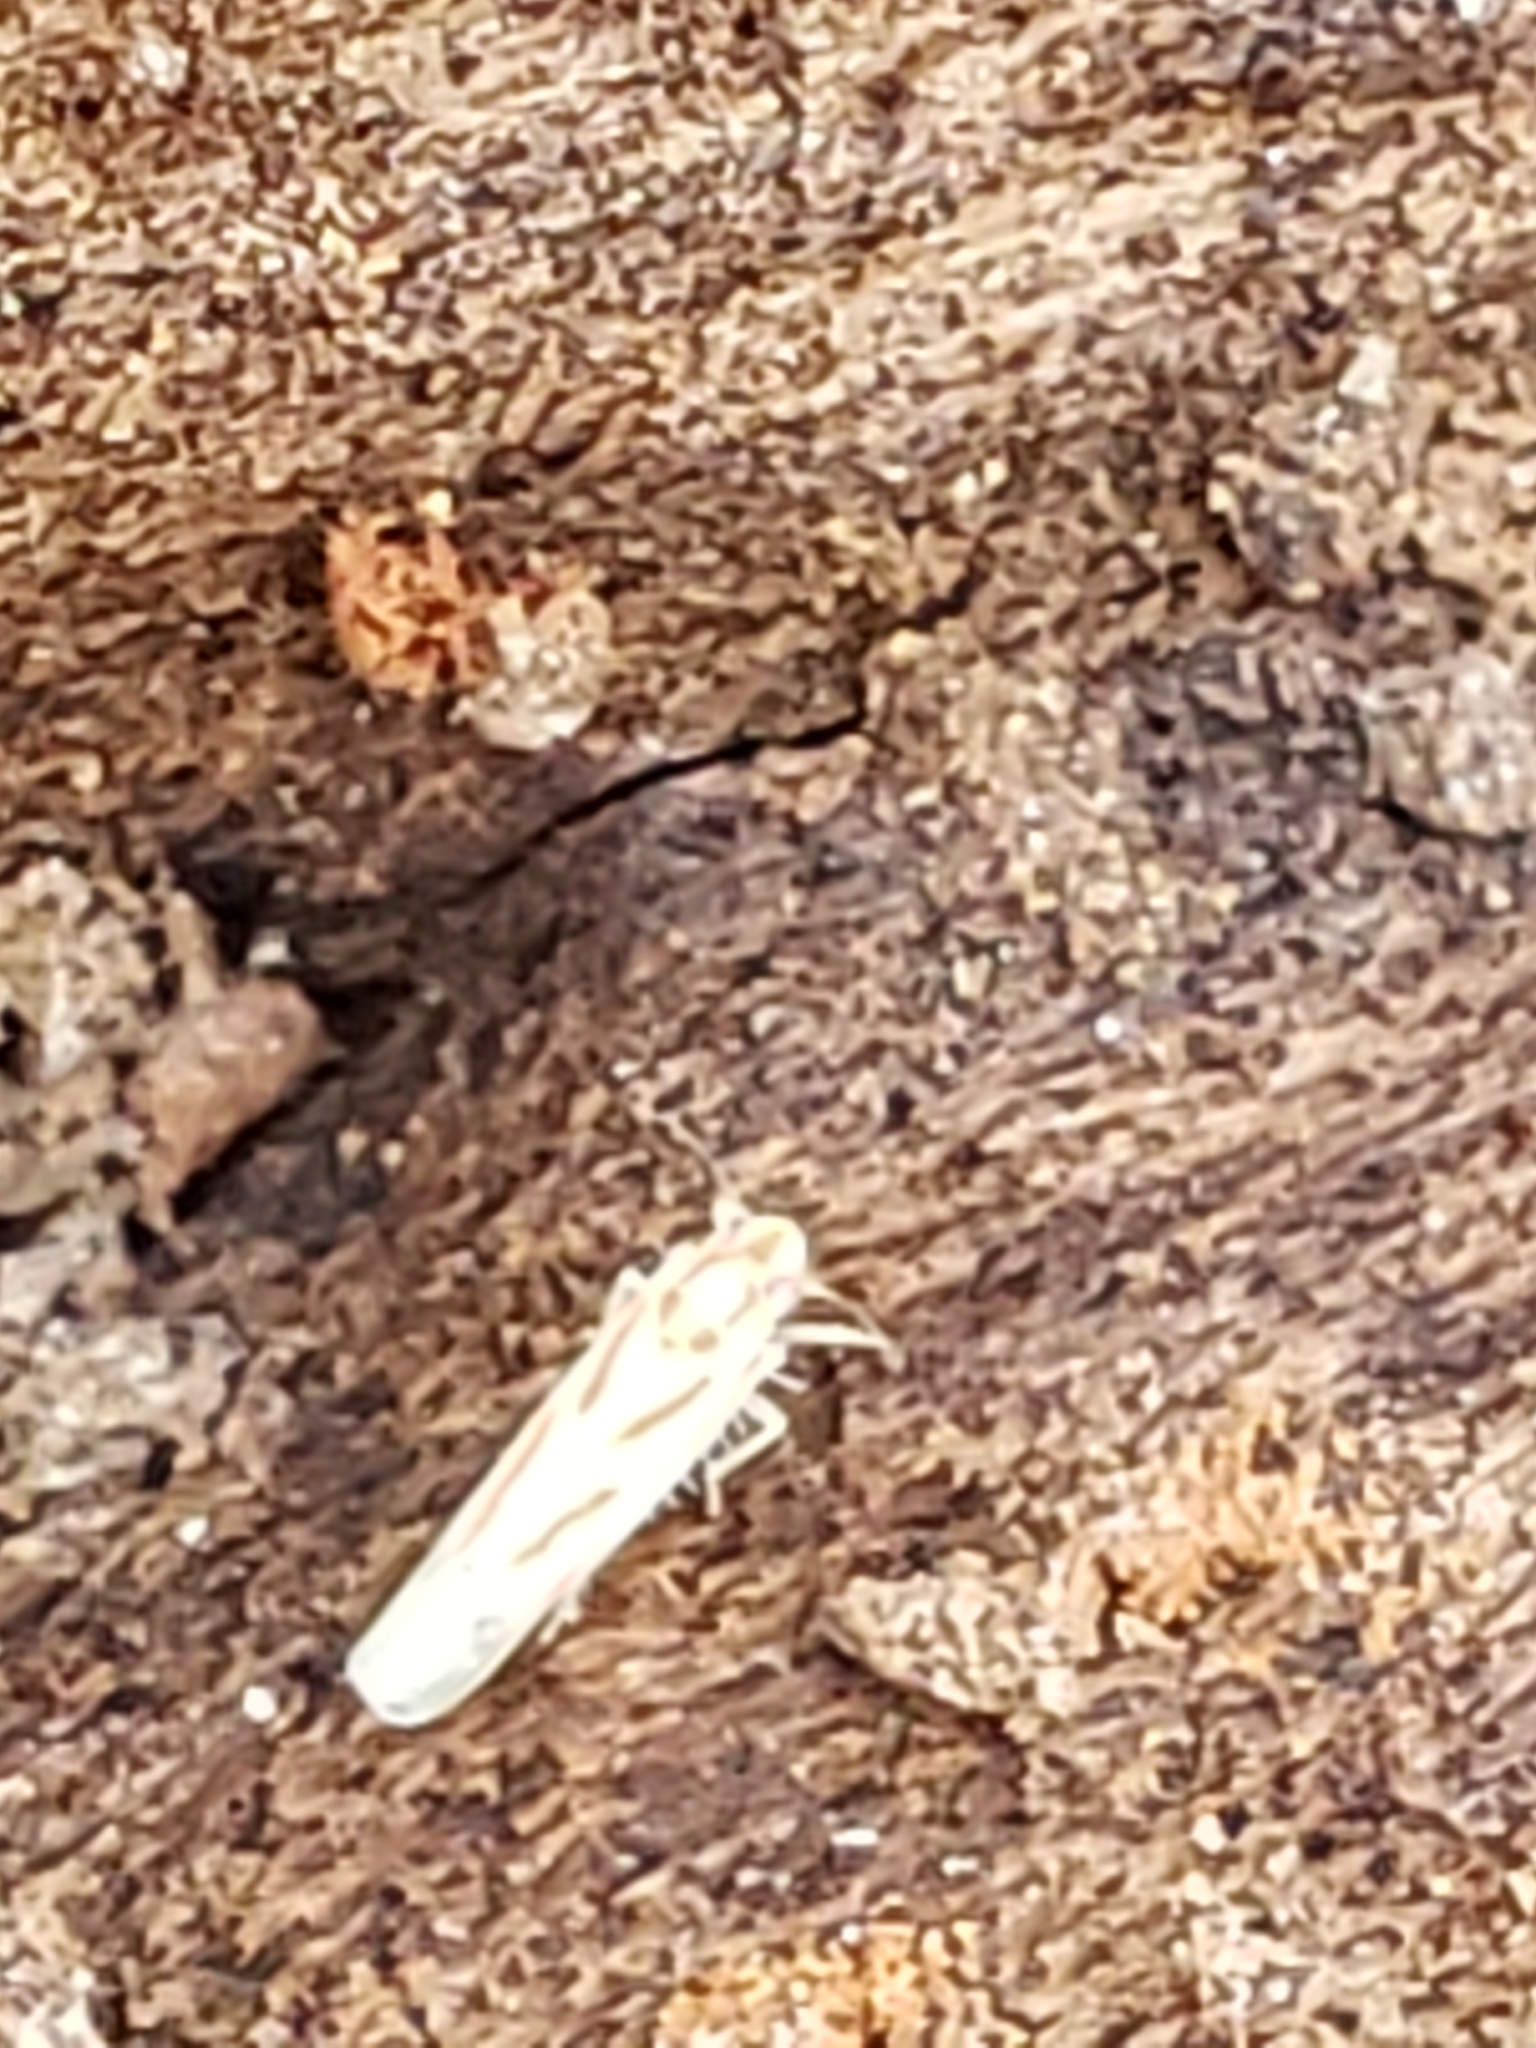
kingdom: Animalia
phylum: Arthropoda
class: Insecta
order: Hemiptera
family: Cicadellidae
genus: Dikrella
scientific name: Dikrella cruentata
